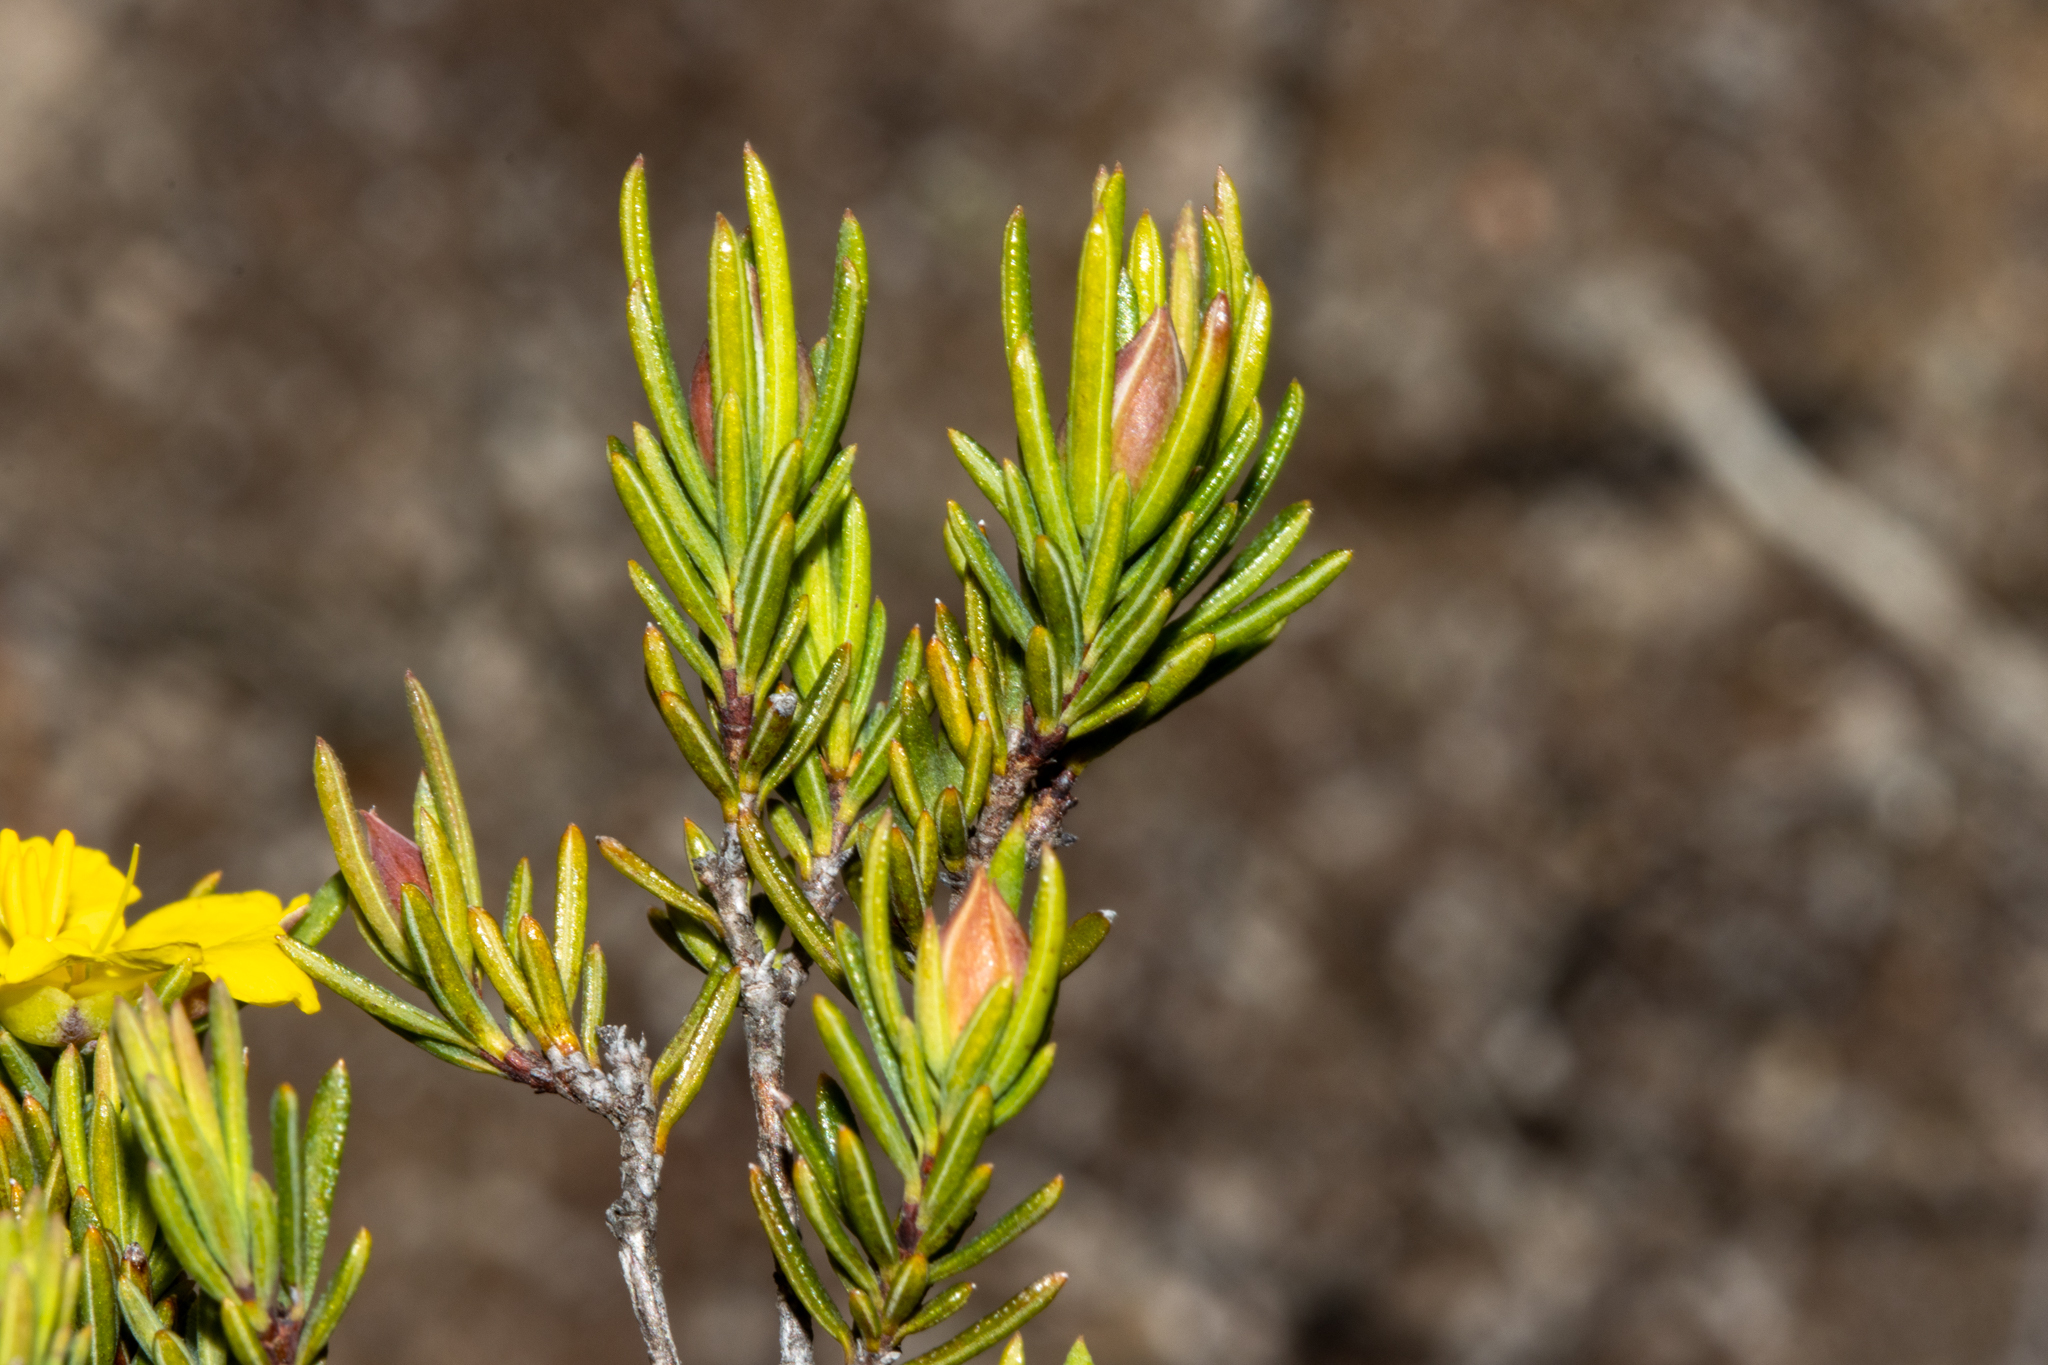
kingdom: Plantae
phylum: Tracheophyta
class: Magnoliopsida
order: Dilleniales
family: Dilleniaceae
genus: Hibbertia
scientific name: Hibbertia oligantha
